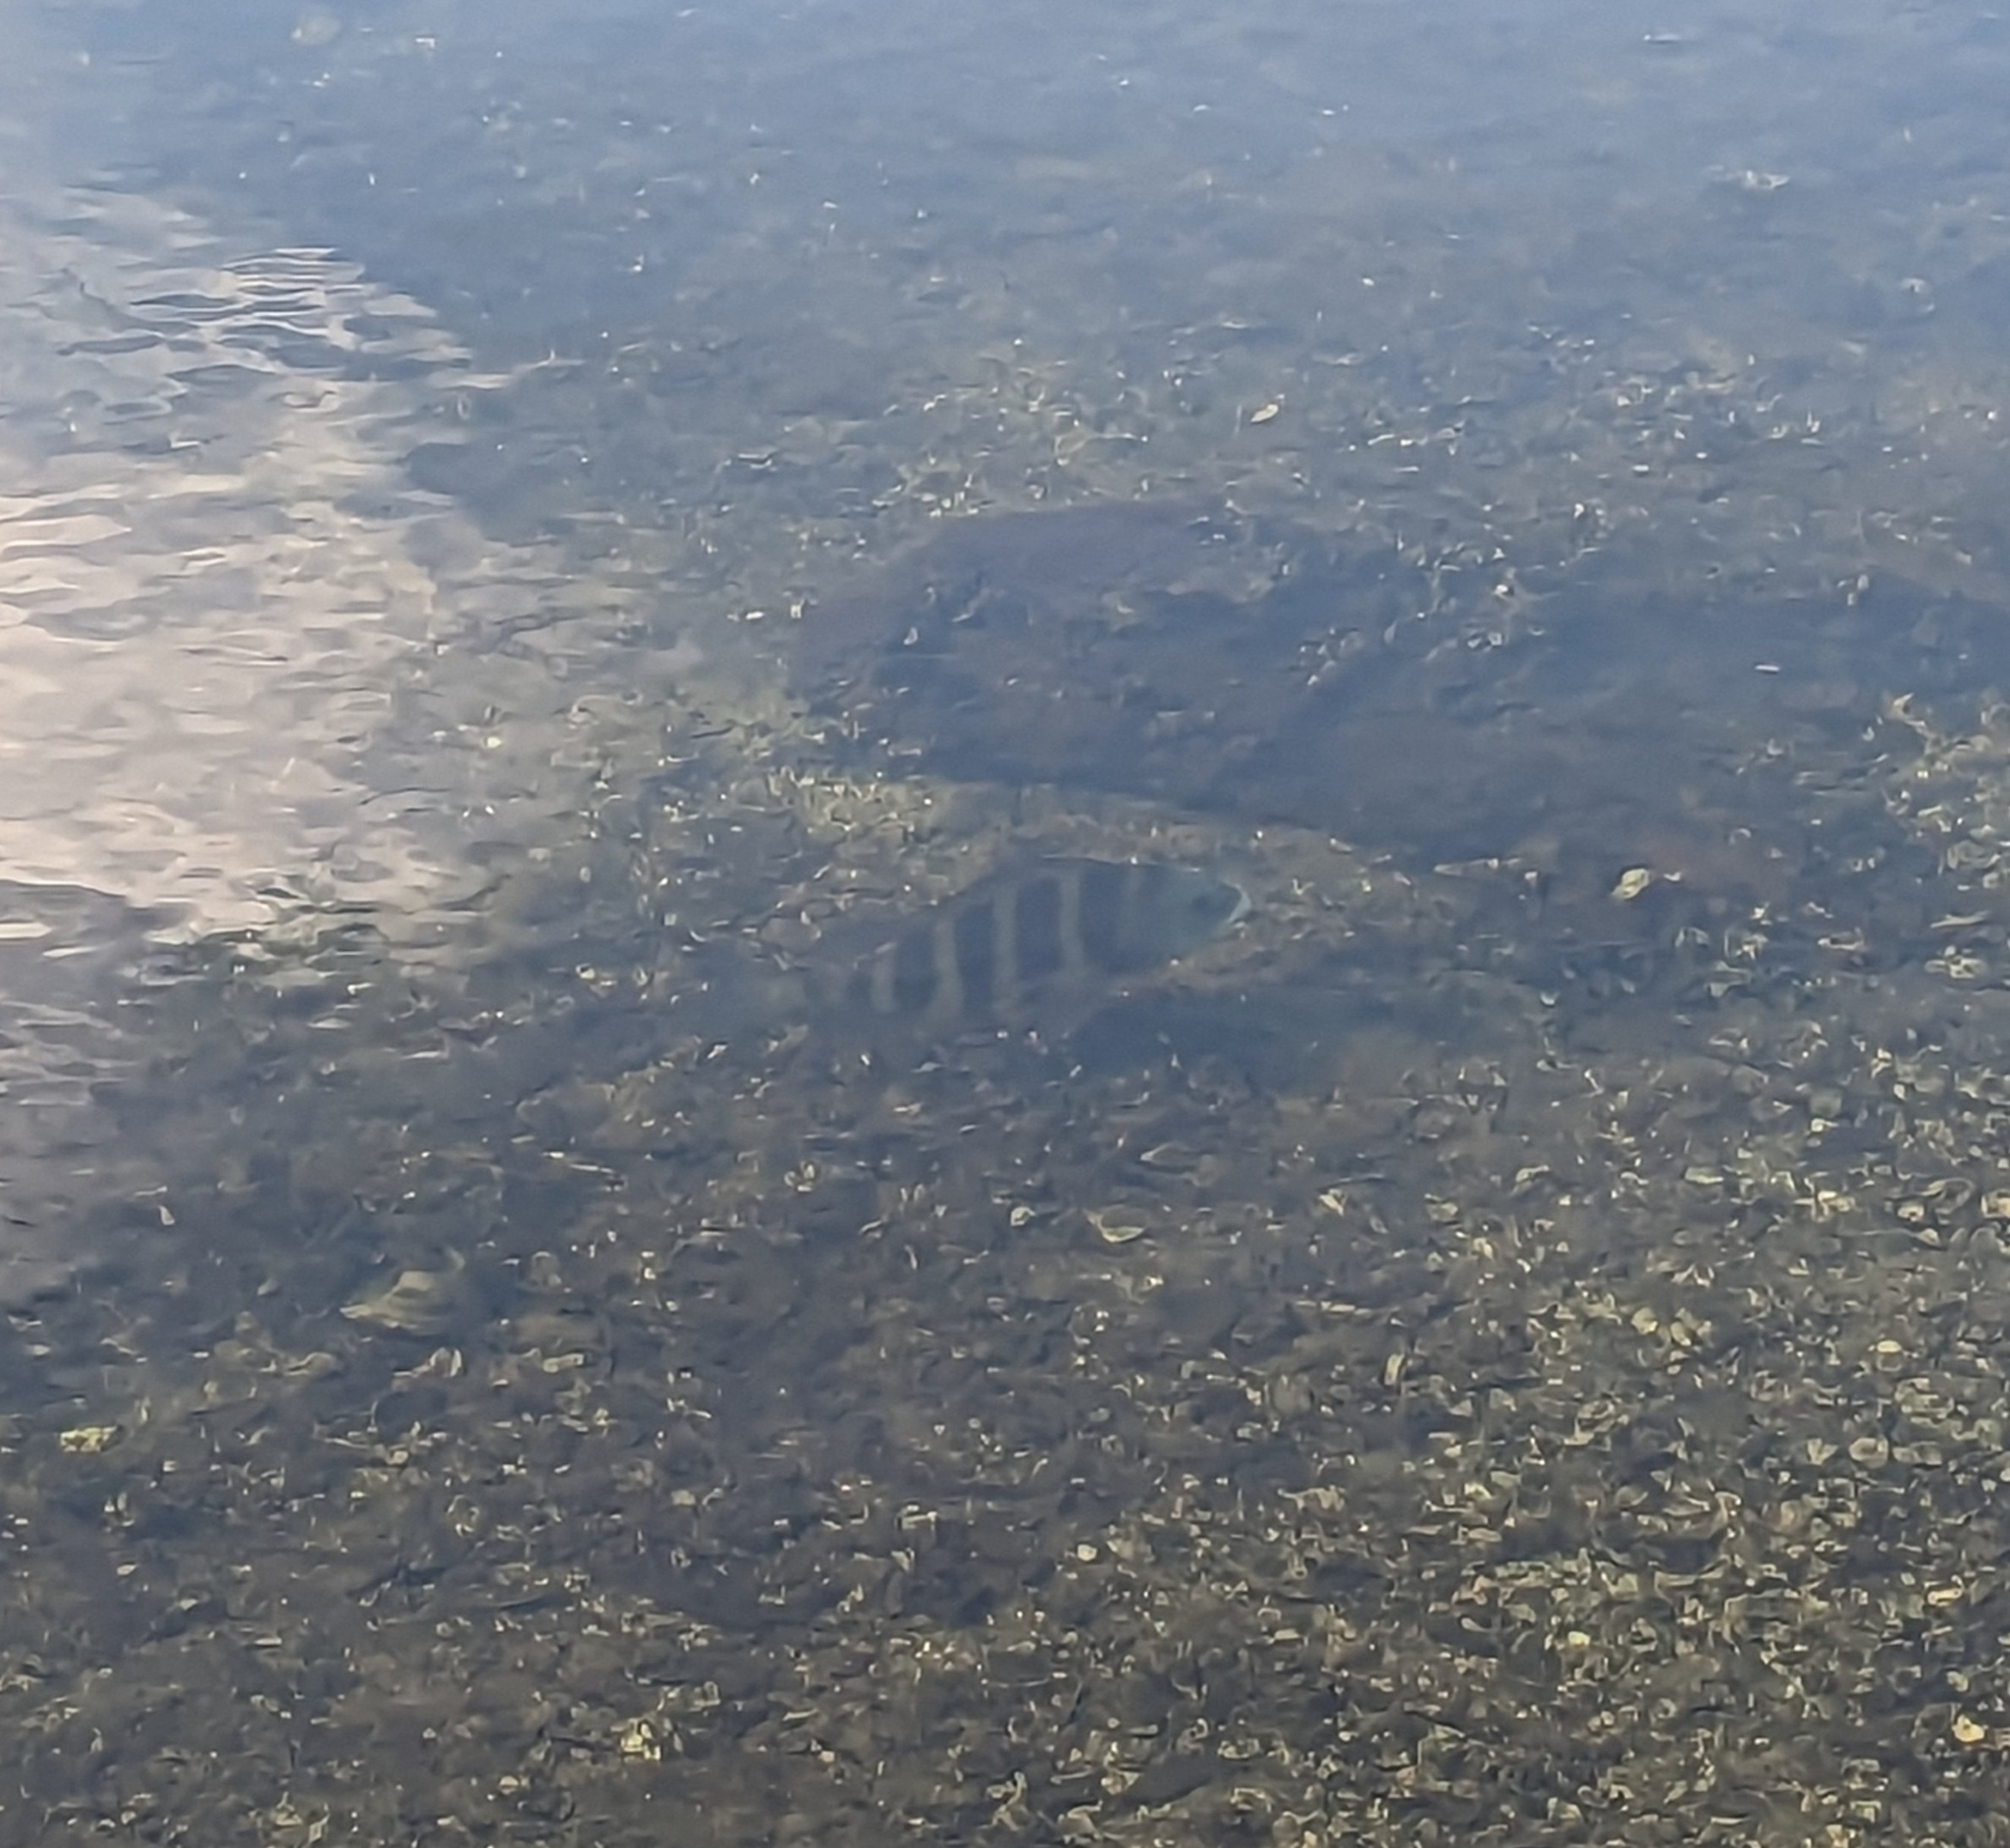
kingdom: Animalia
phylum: Chordata
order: Perciformes
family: Sparidae
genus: Archosargus
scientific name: Archosargus probatocephalus
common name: Sheepshead
